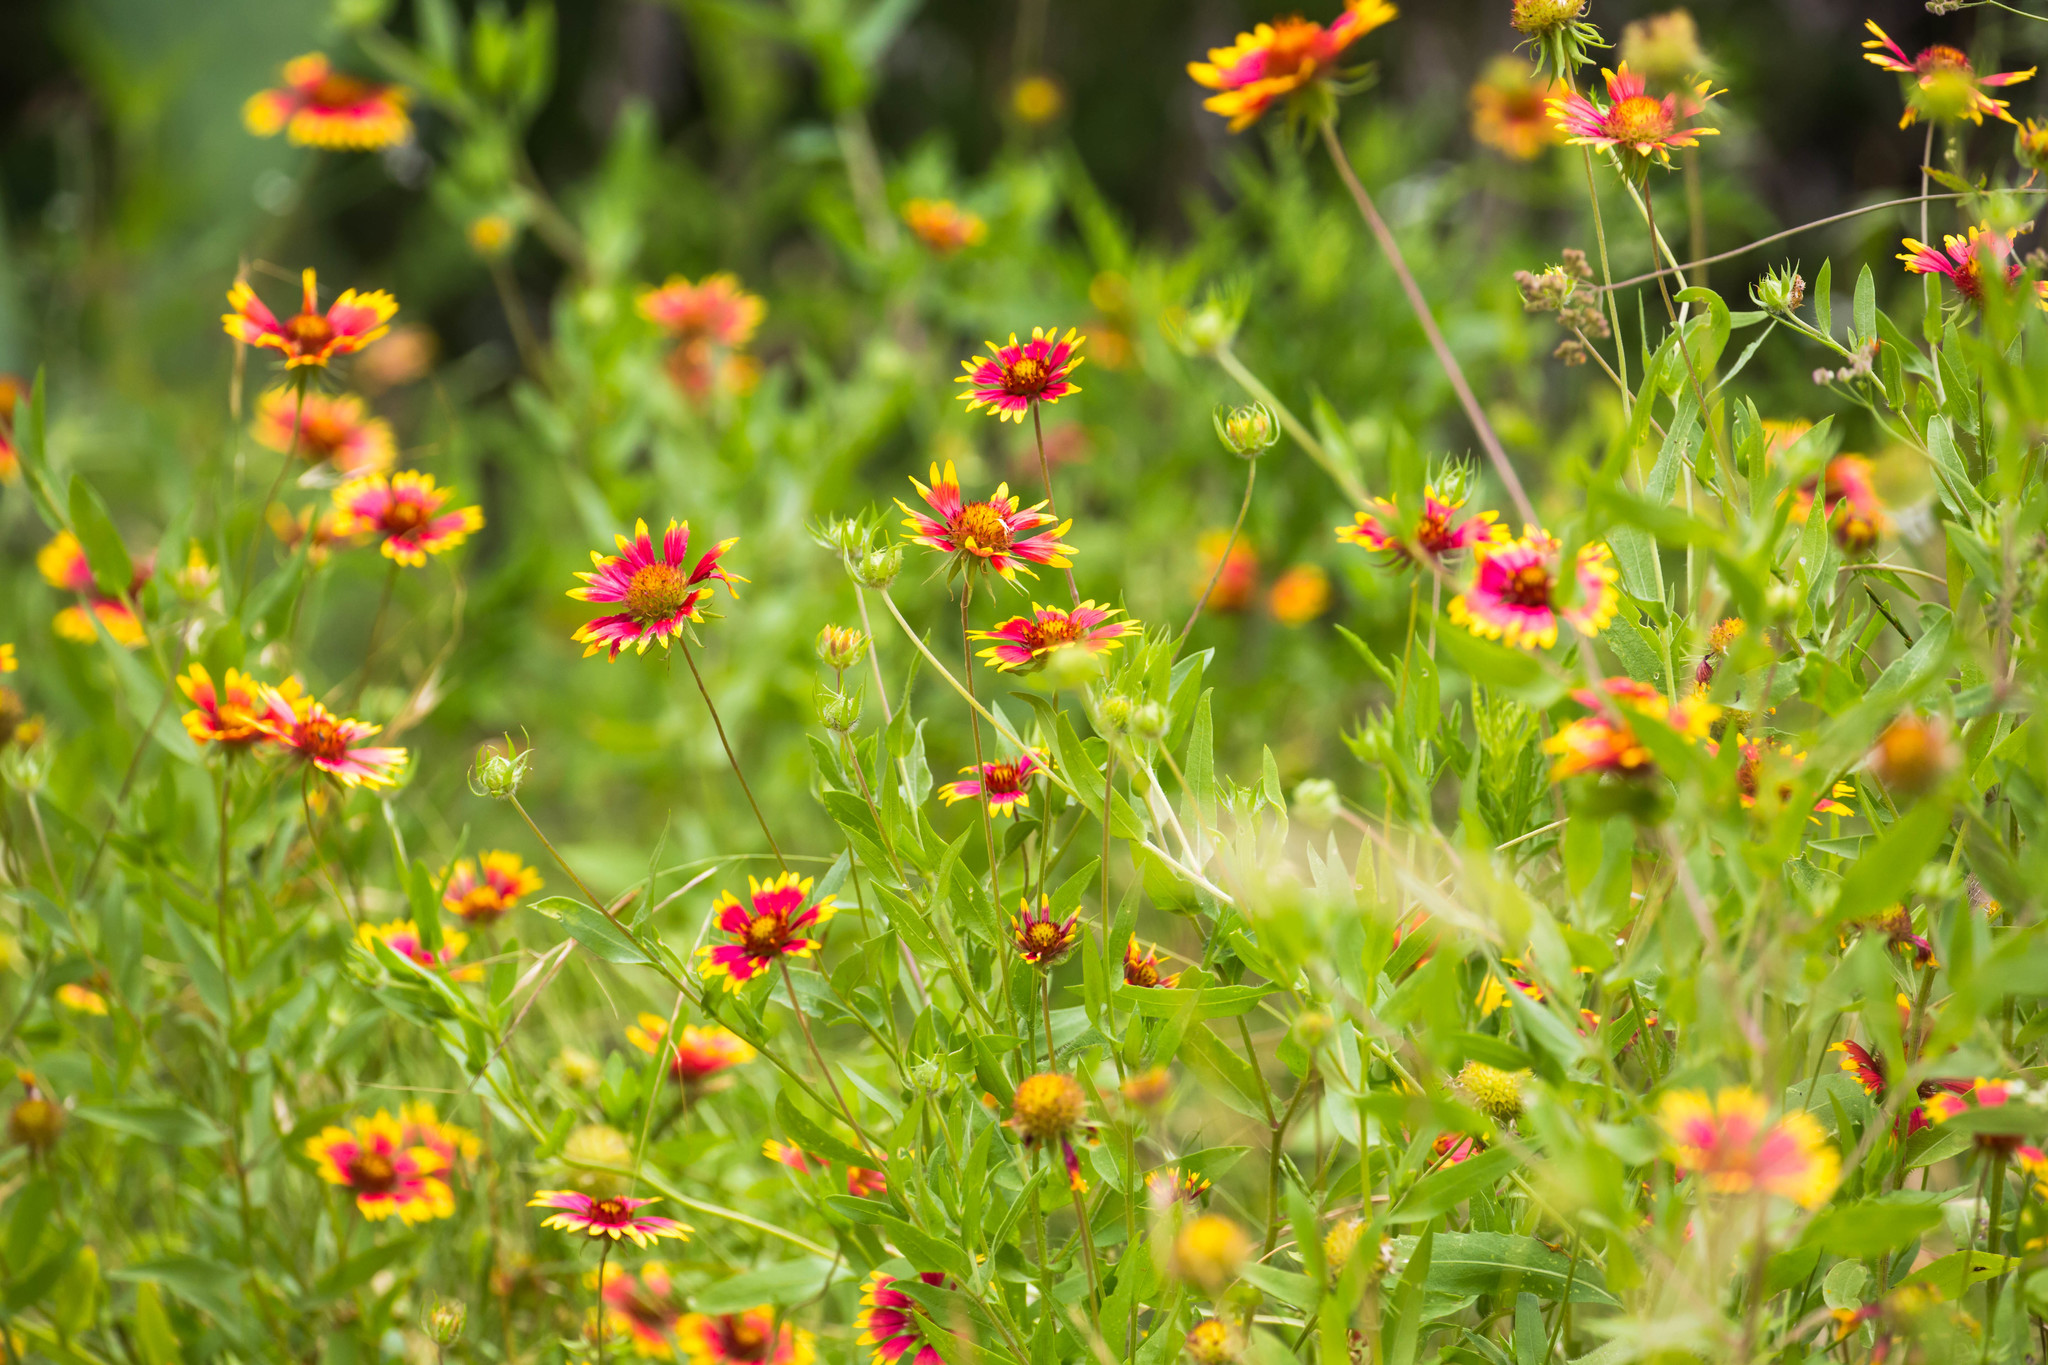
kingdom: Plantae
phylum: Tracheophyta
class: Magnoliopsida
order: Asterales
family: Asteraceae
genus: Gaillardia
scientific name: Gaillardia pulchella
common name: Firewheel
